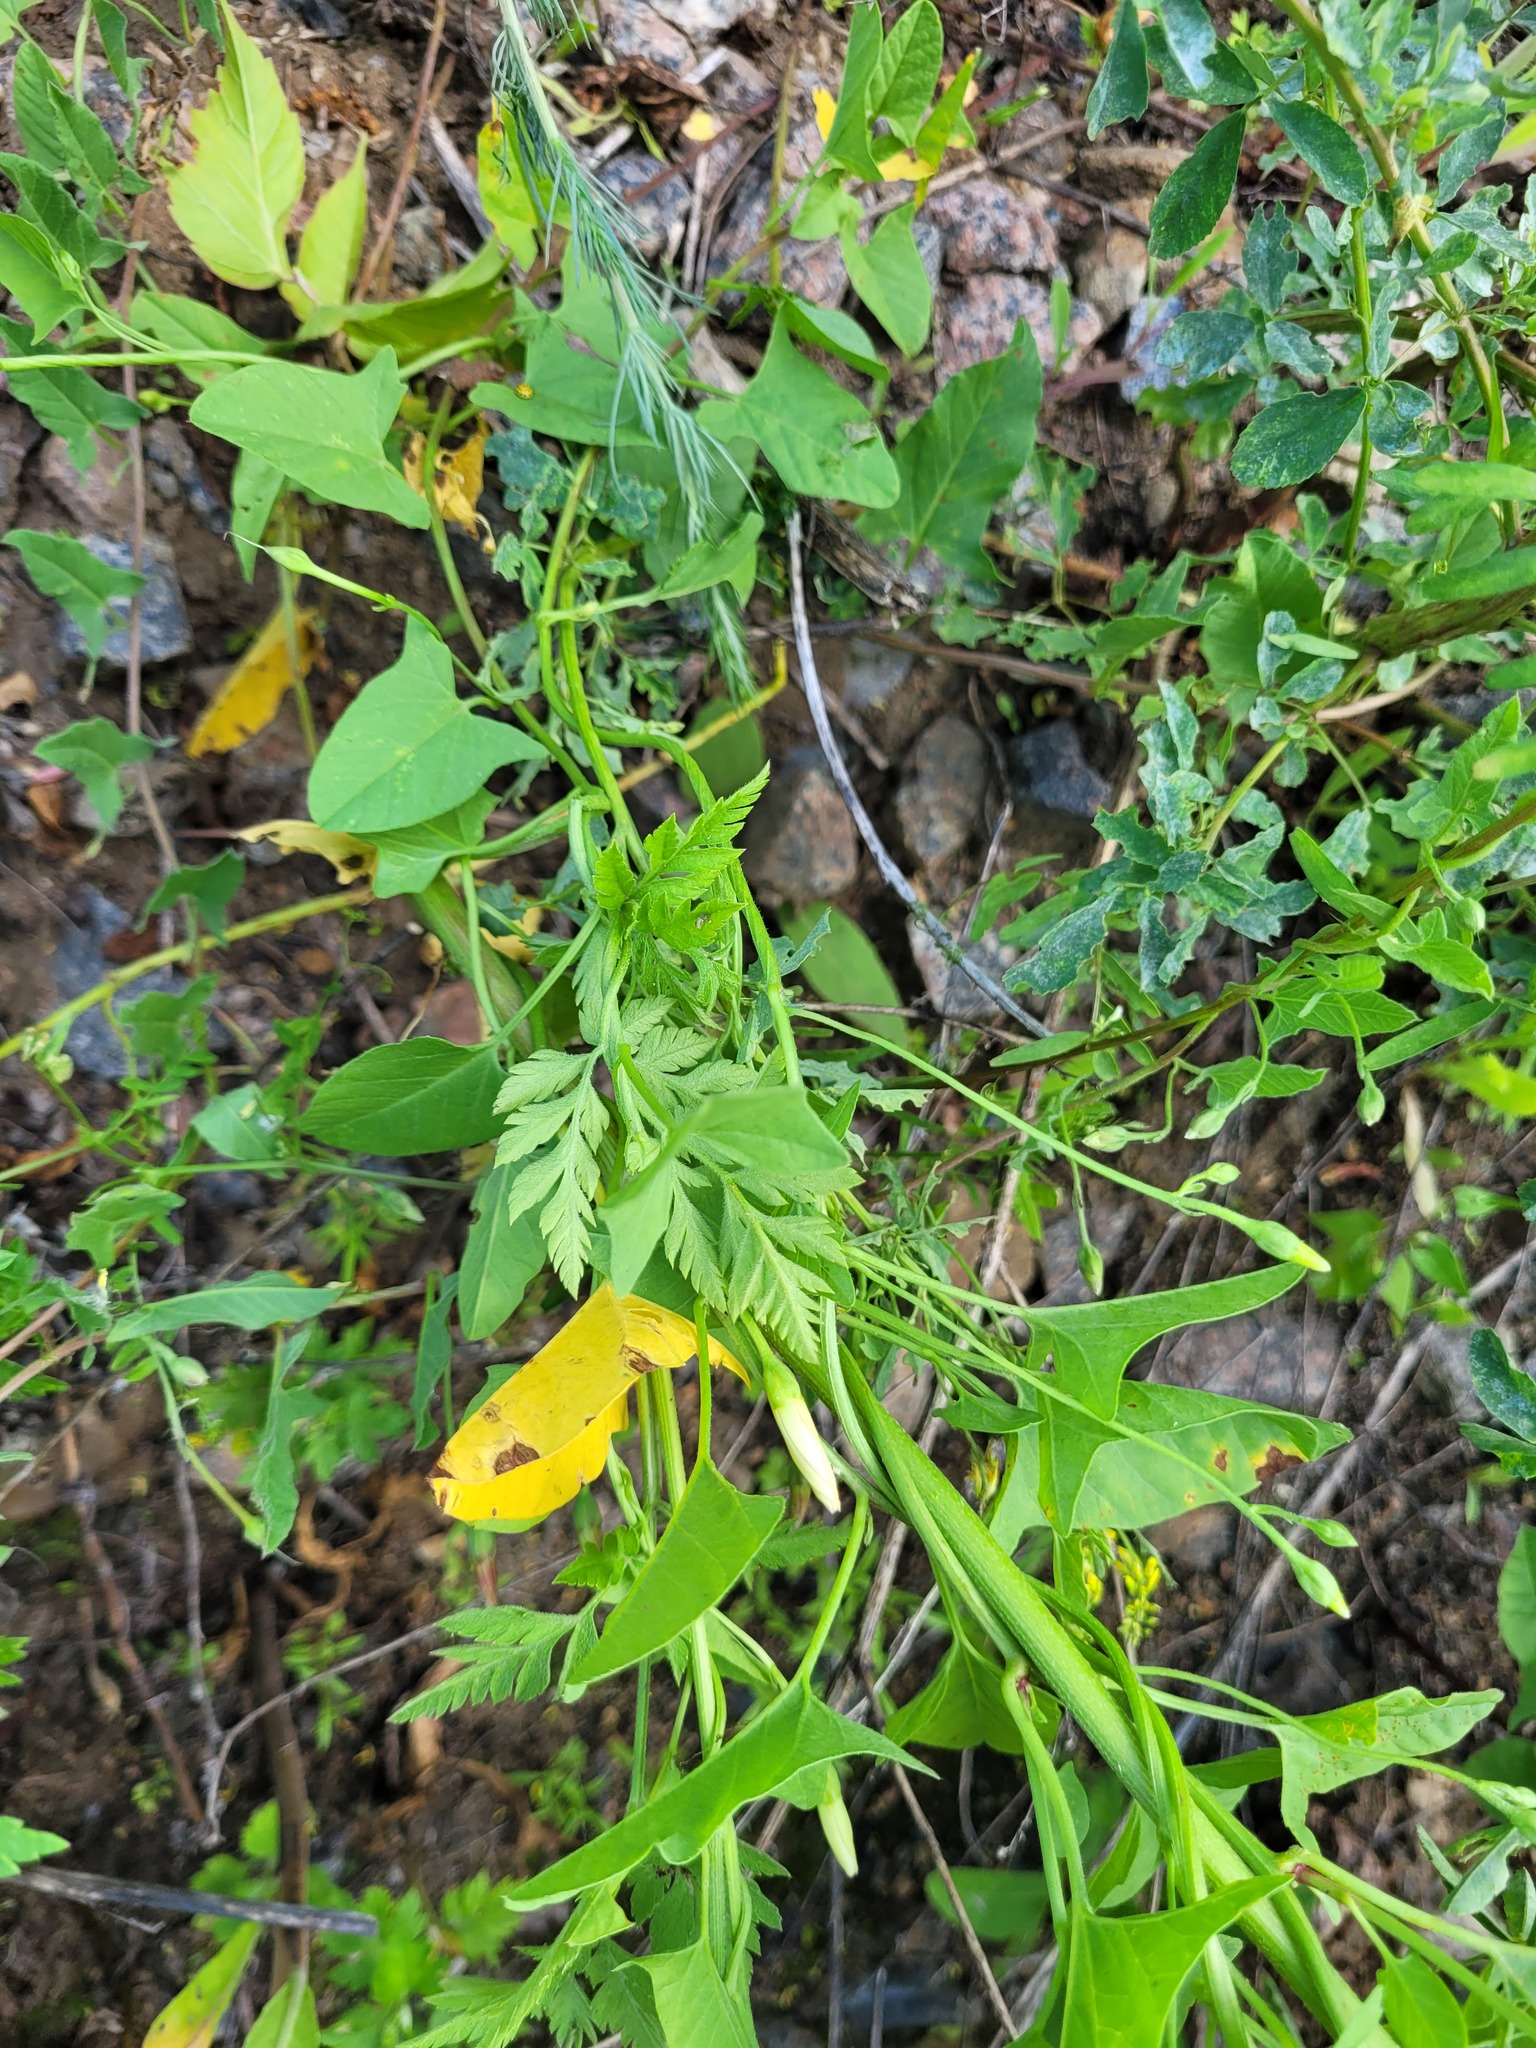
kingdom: Plantae
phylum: Tracheophyta
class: Magnoliopsida
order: Apiales
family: Apiaceae
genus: Torilis
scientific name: Torilis japonica
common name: Upright hedge-parsley
